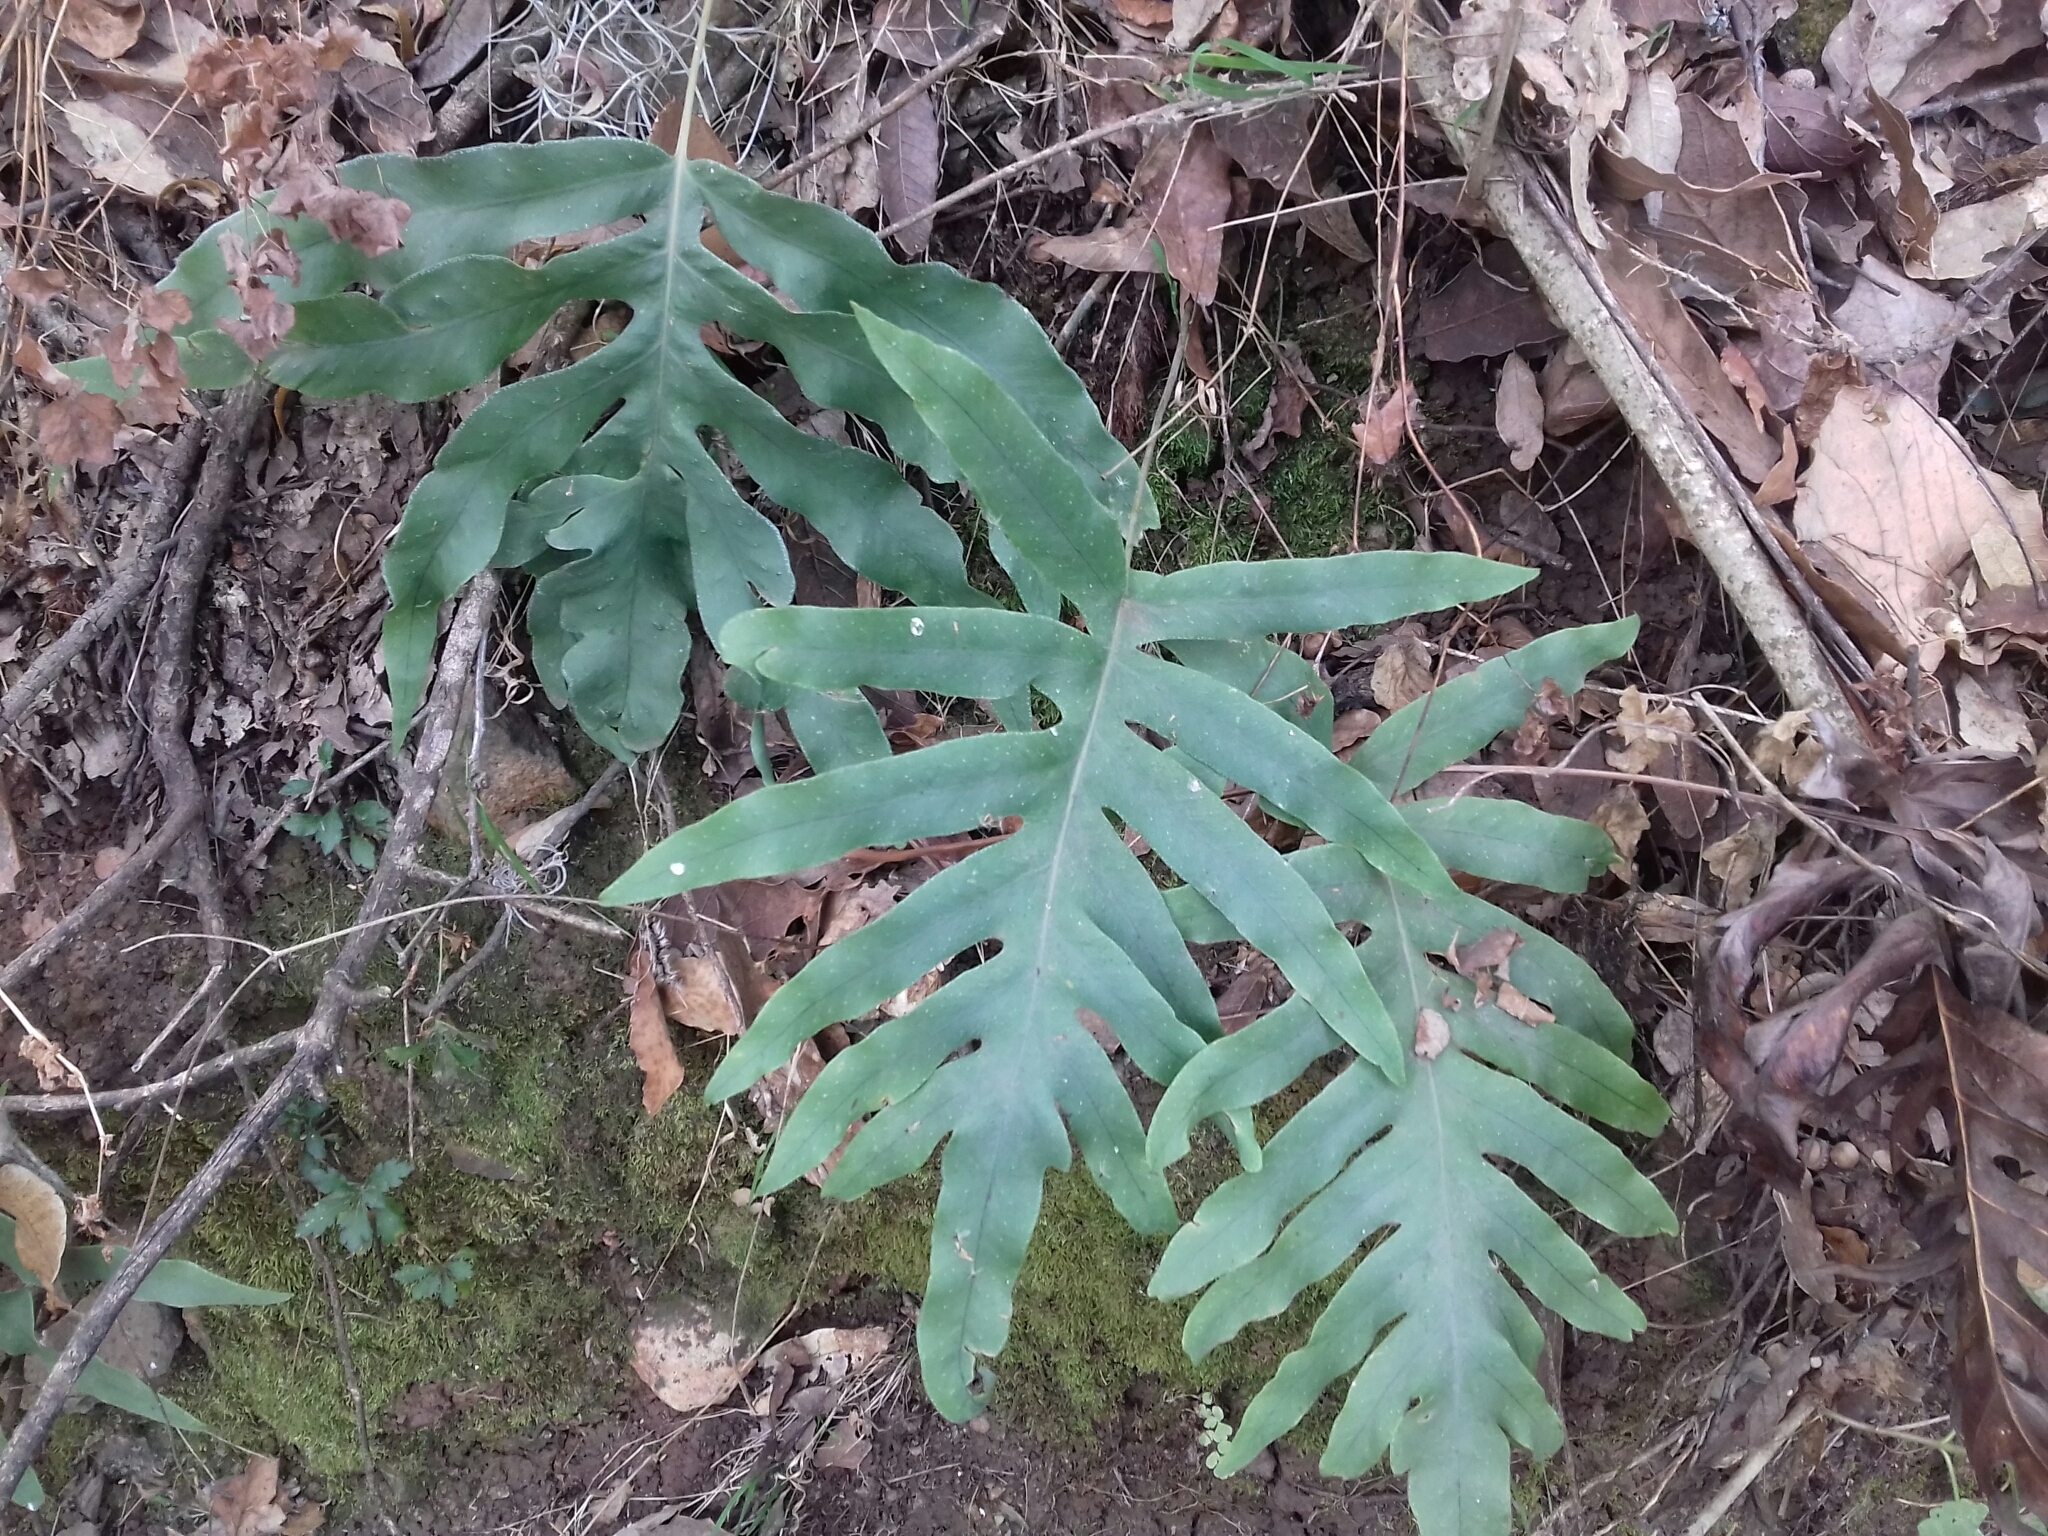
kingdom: Plantae
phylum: Tracheophyta
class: Polypodiopsida
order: Polypodiales
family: Polypodiaceae
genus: Phlebodium
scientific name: Phlebodium pseudoaureum
